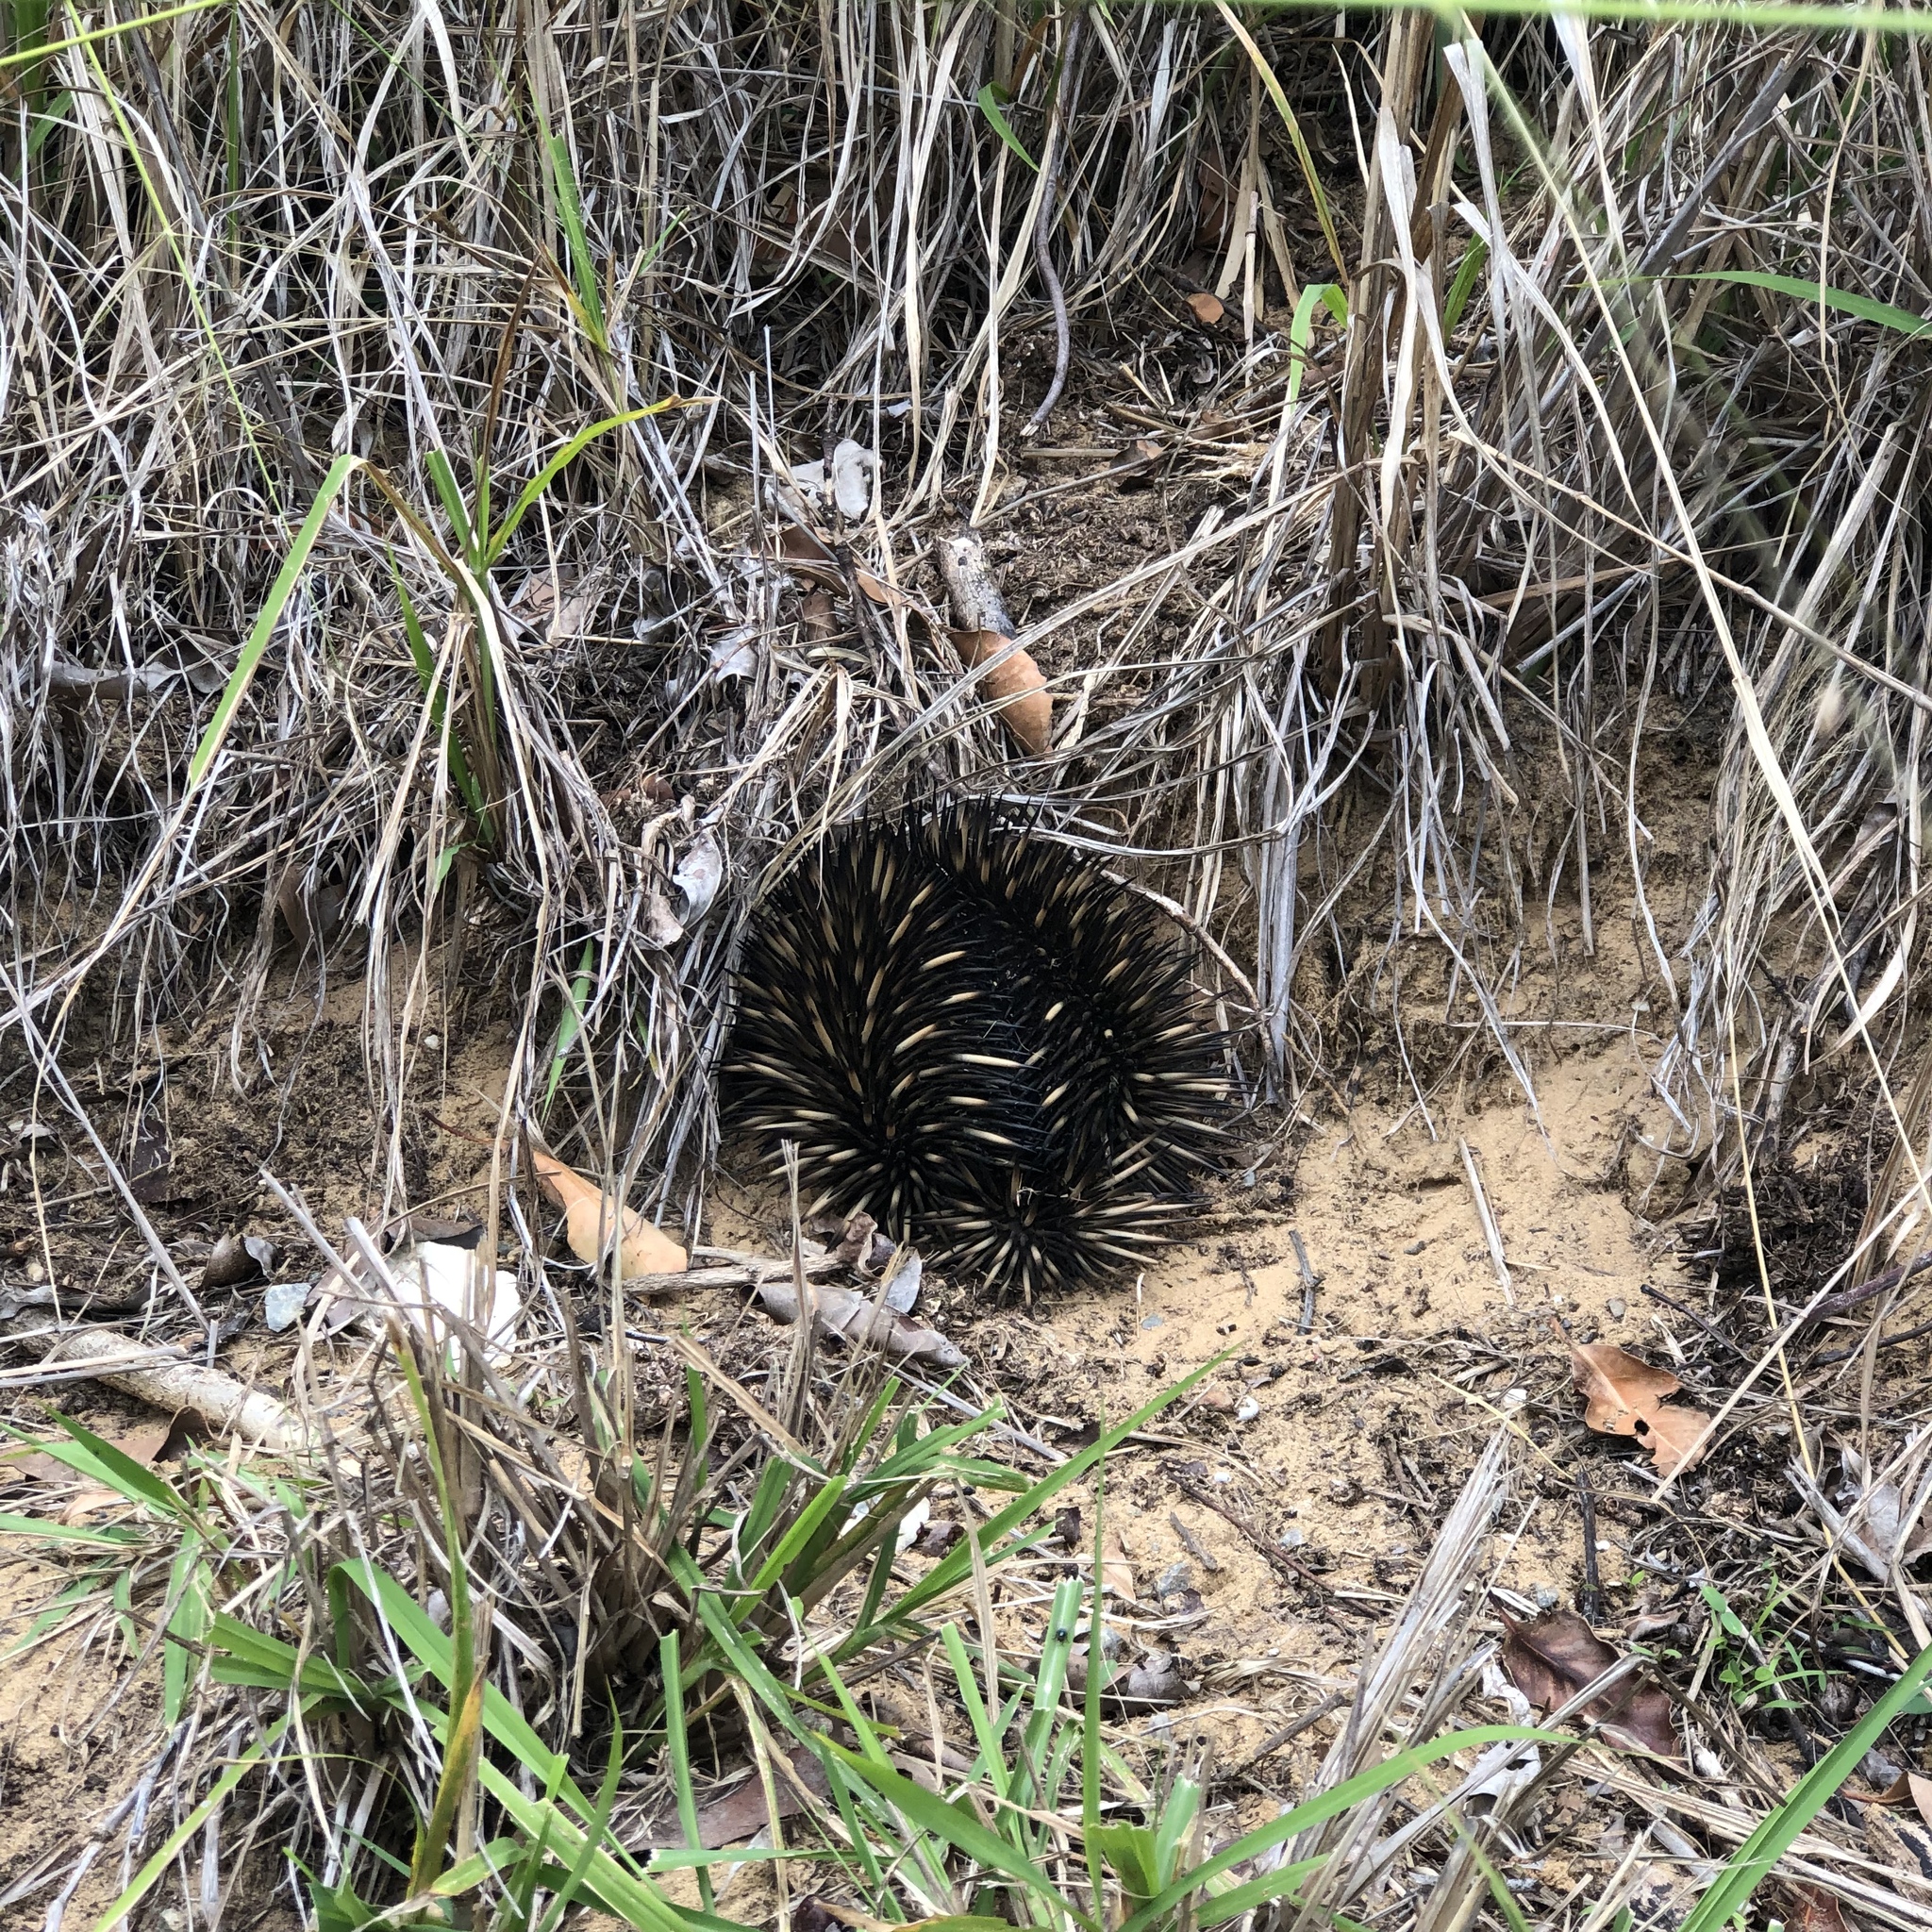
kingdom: Animalia
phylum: Chordata
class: Mammalia
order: Monotremata
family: Tachyglossidae
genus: Tachyglossus
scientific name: Tachyglossus aculeatus
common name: Short-beaked echidna
